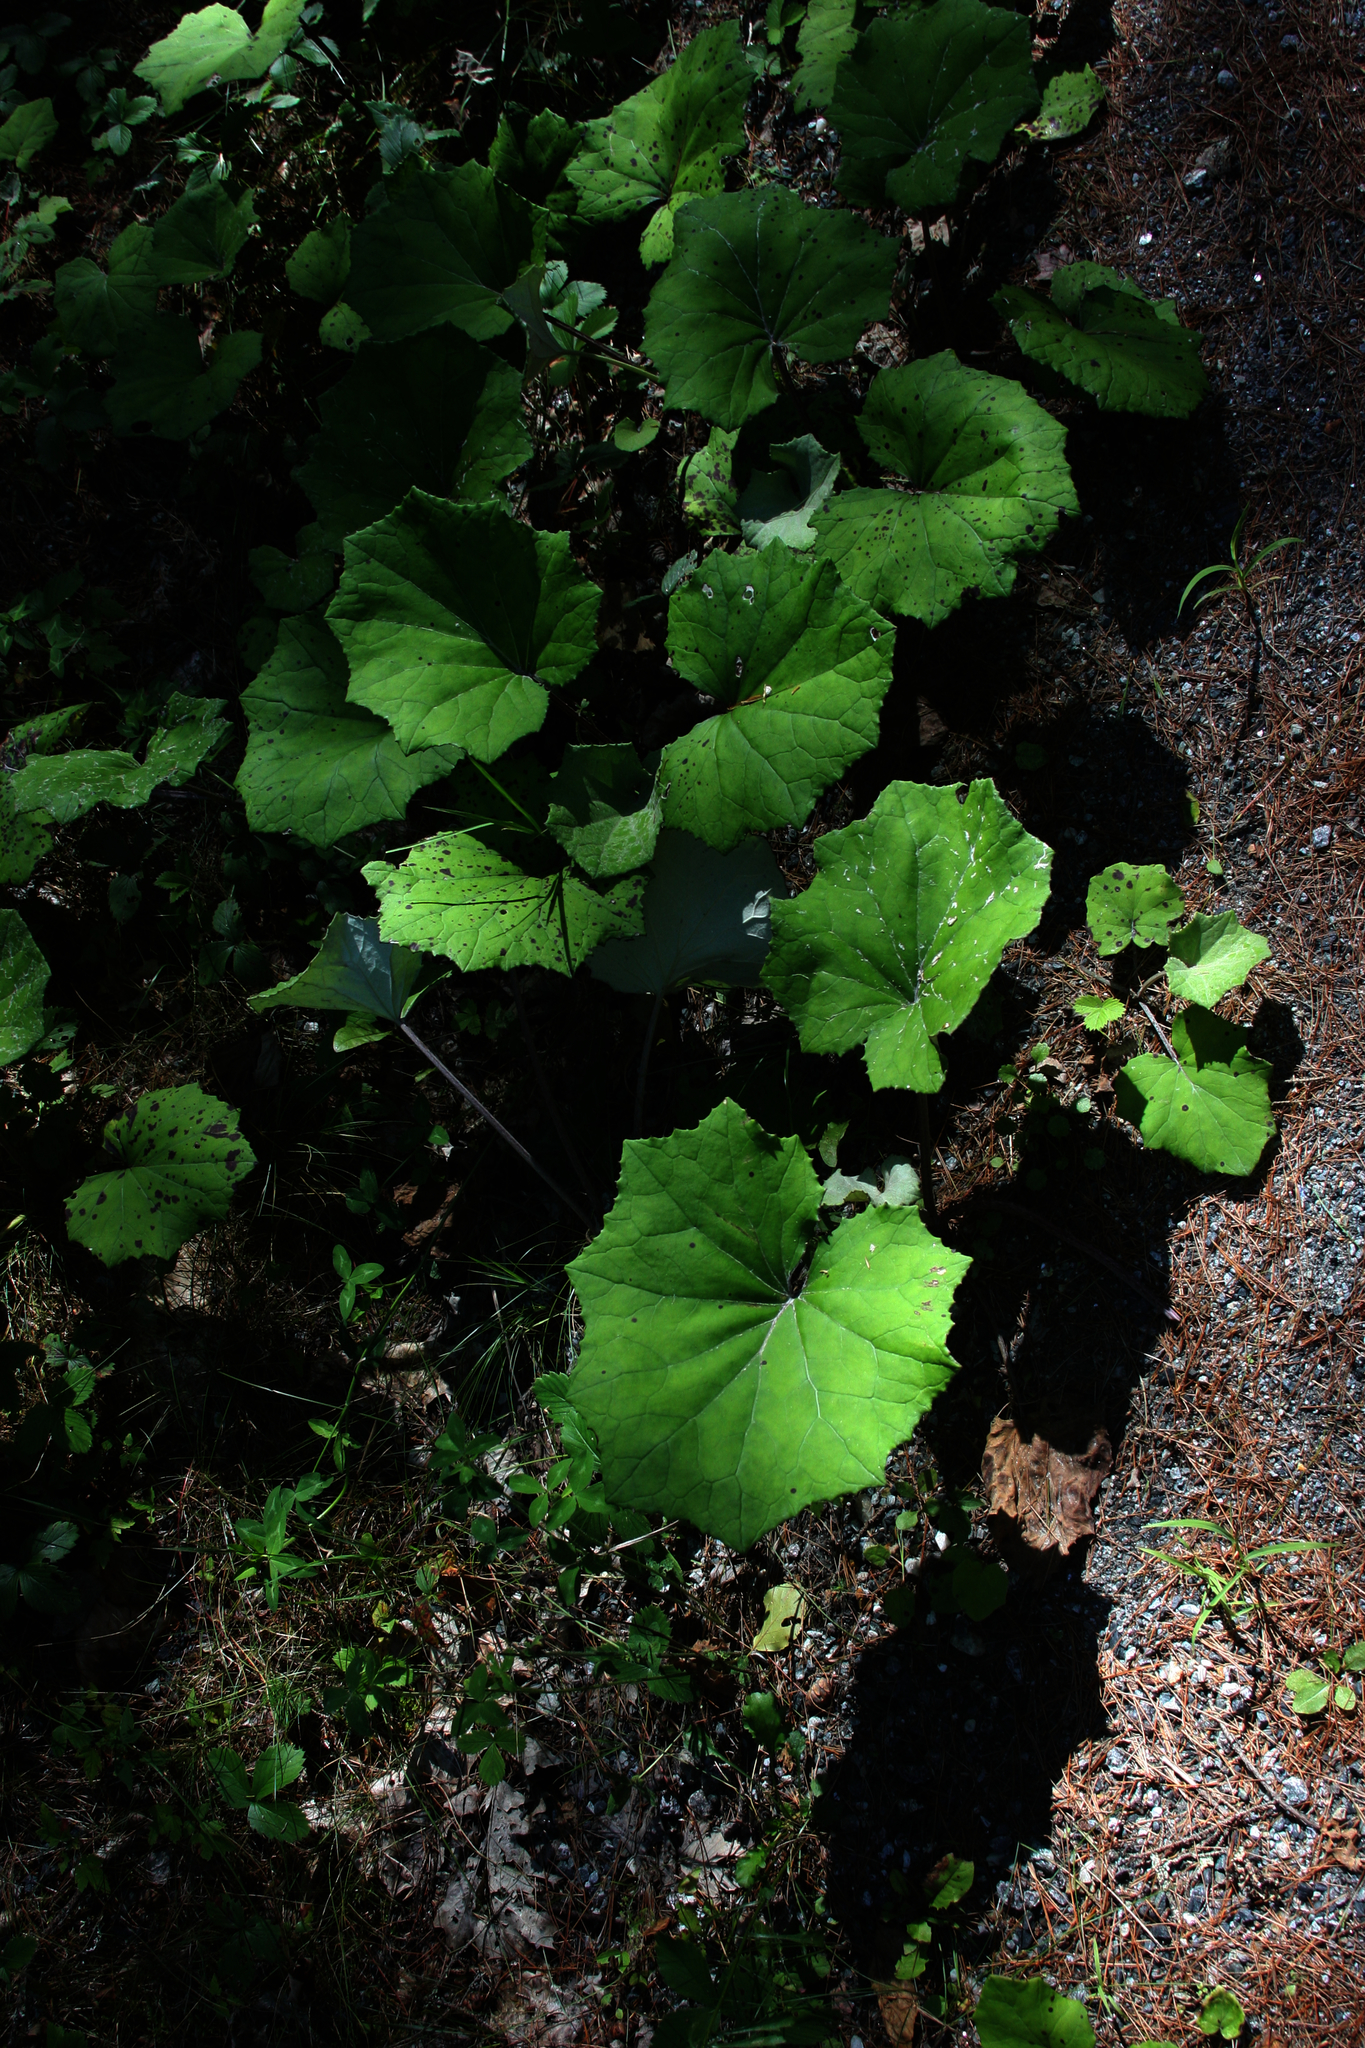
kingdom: Plantae
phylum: Tracheophyta
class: Magnoliopsida
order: Asterales
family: Asteraceae
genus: Tussilago
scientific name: Tussilago farfara
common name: Coltsfoot
